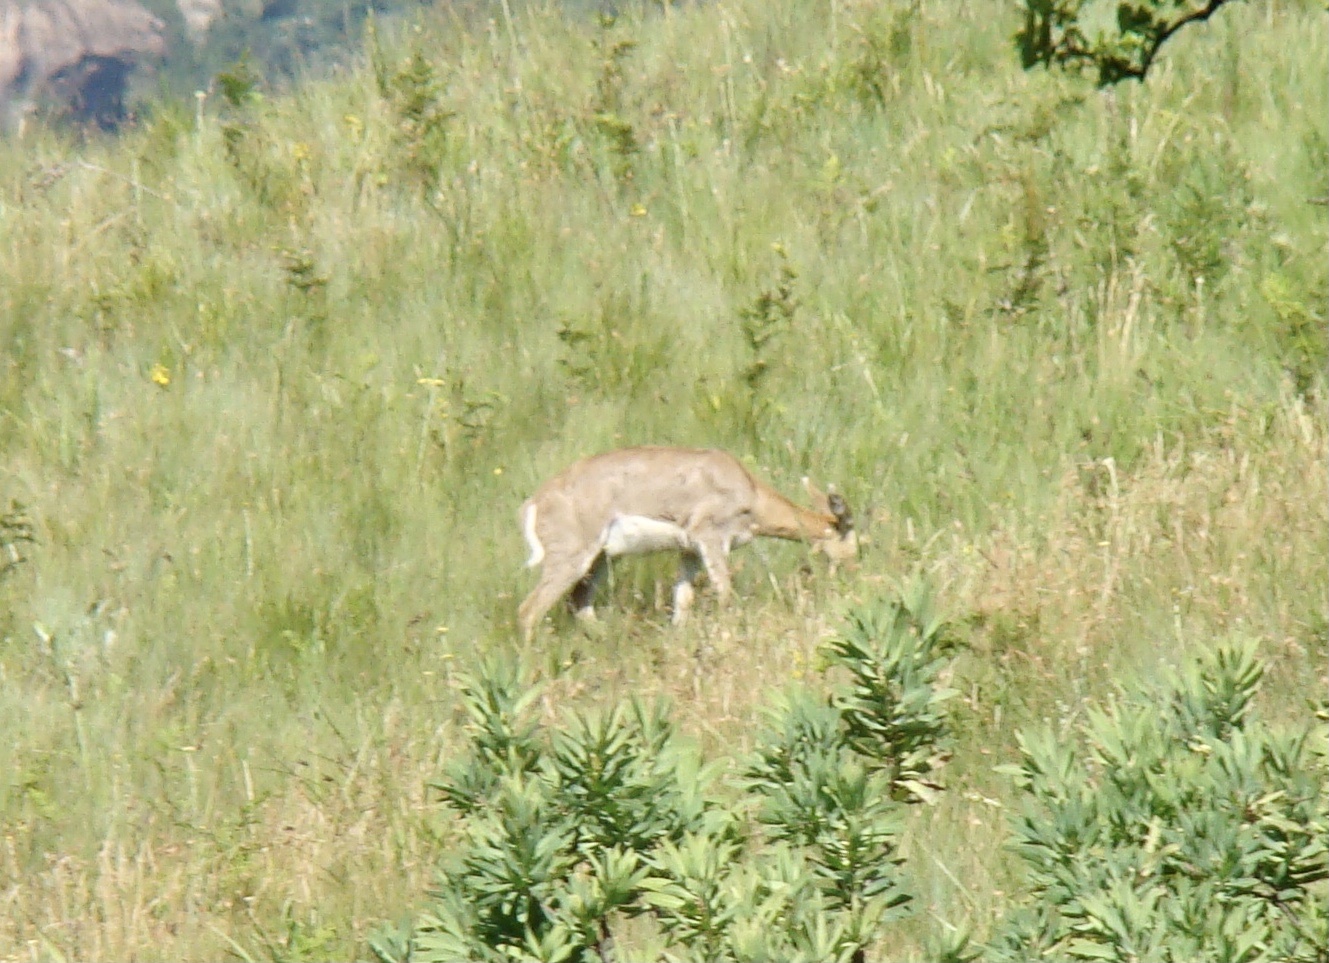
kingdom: Animalia
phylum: Chordata
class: Mammalia
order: Artiodactyla
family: Bovidae
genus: Redunca
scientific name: Redunca fulvorufula
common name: Mountain reedbuck
